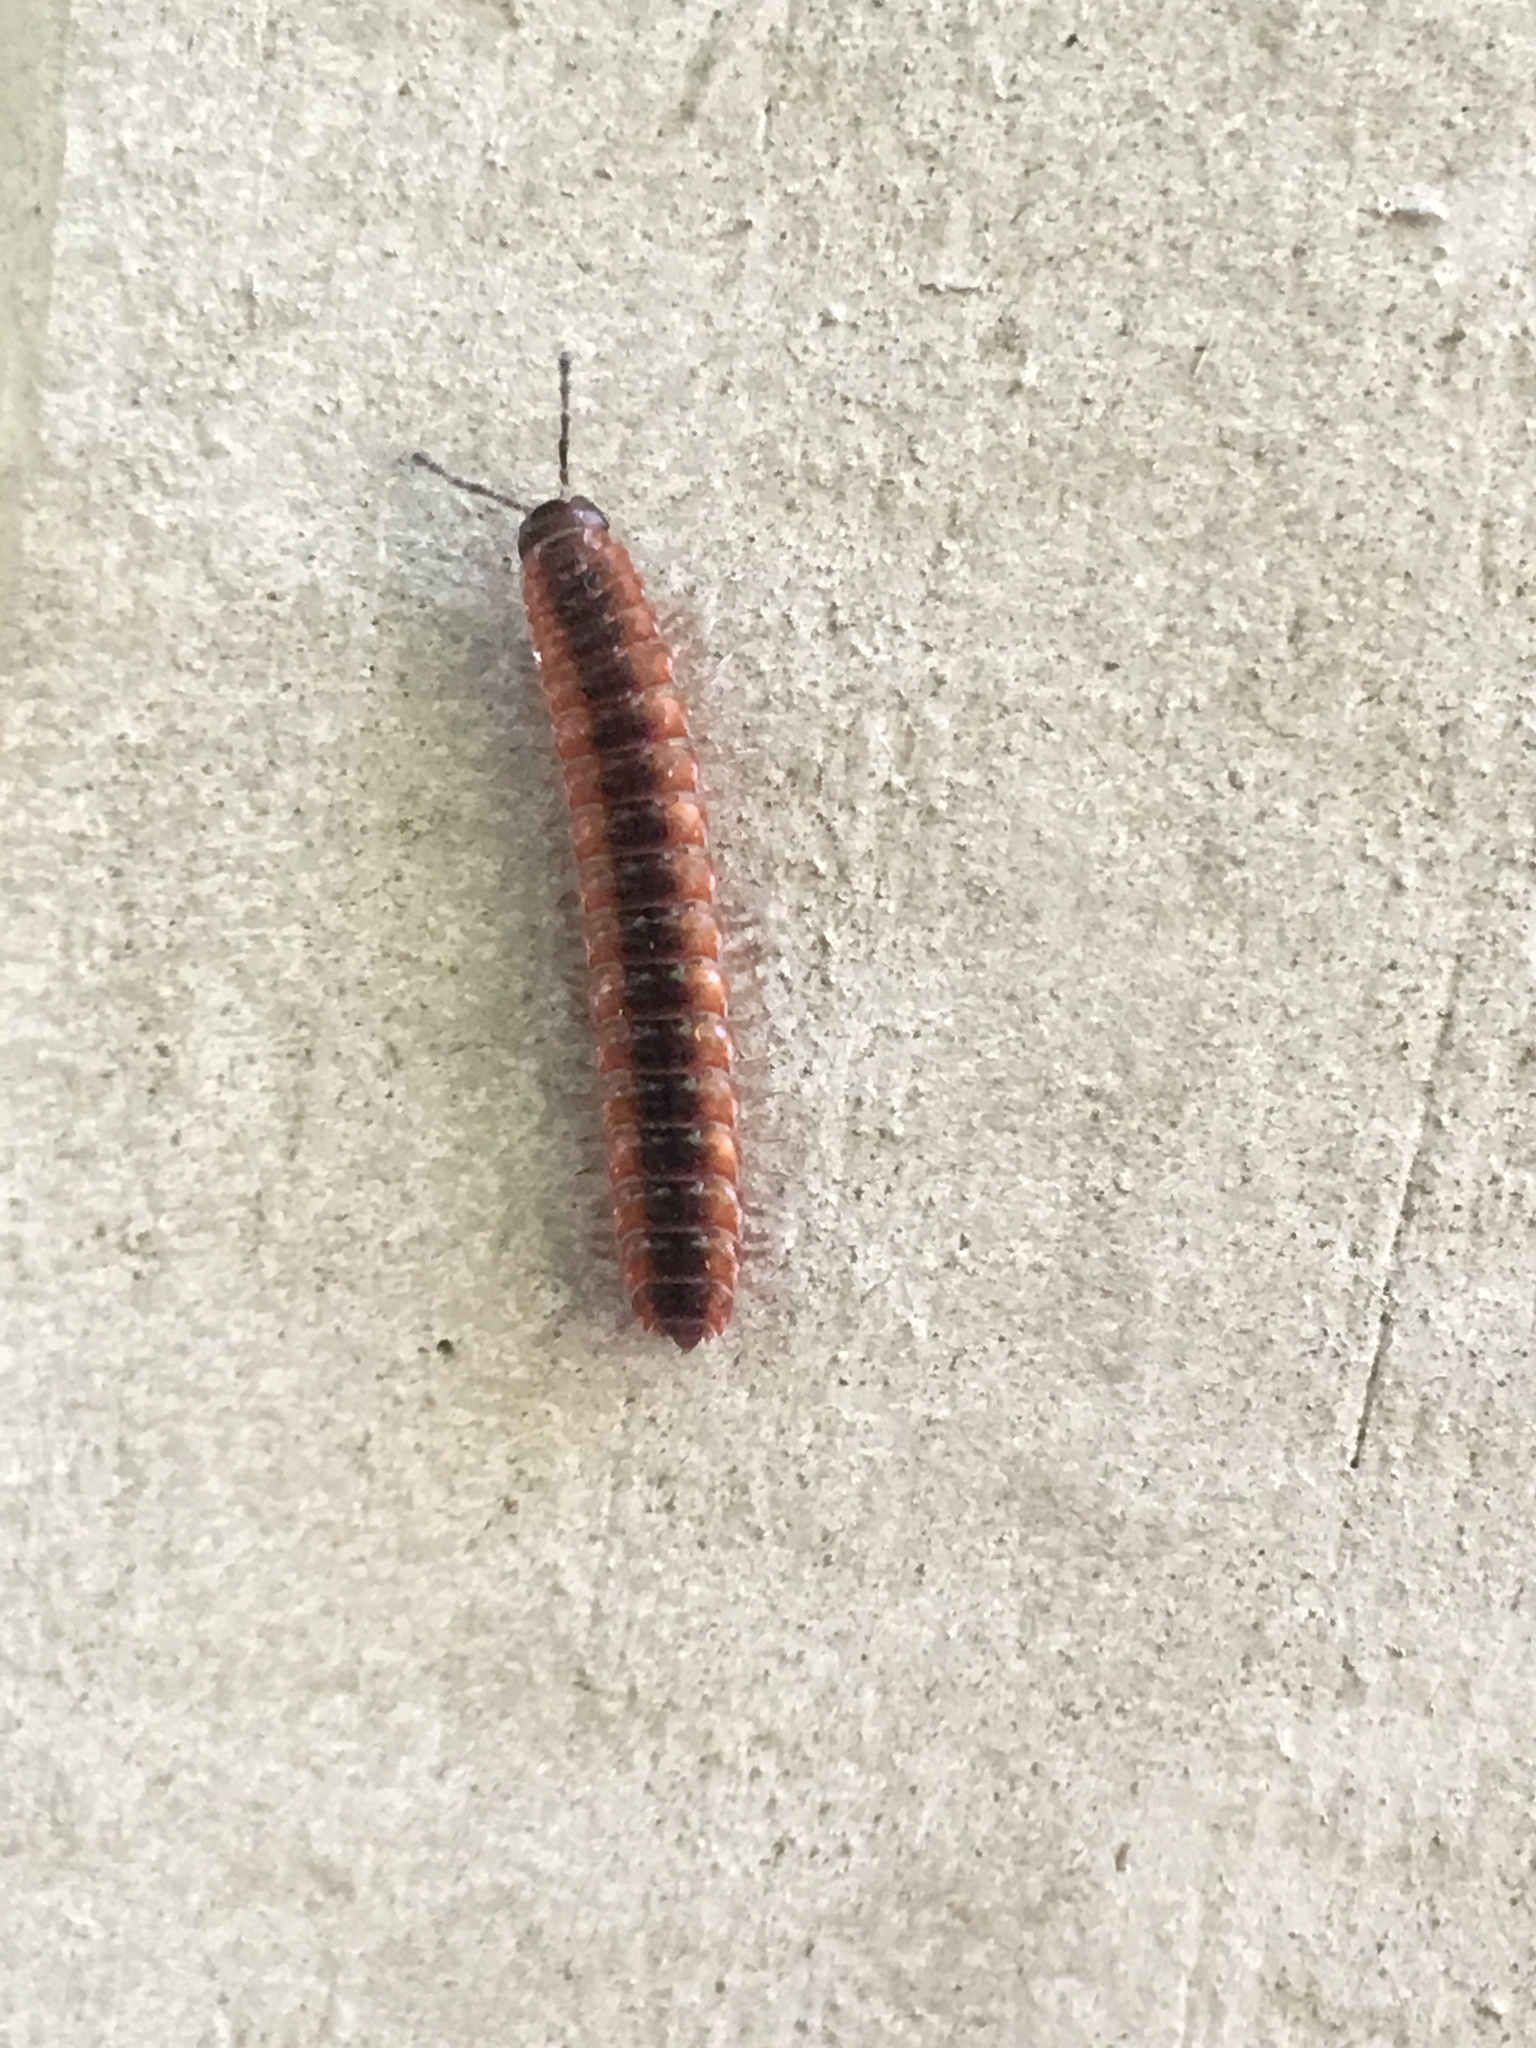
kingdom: Animalia
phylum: Arthropoda
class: Diplopoda
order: Polydesmida
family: Polydesmidae
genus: Pseudopolydesmus
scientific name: Pseudopolydesmus canadensis
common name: Canadian flat-back millipede
